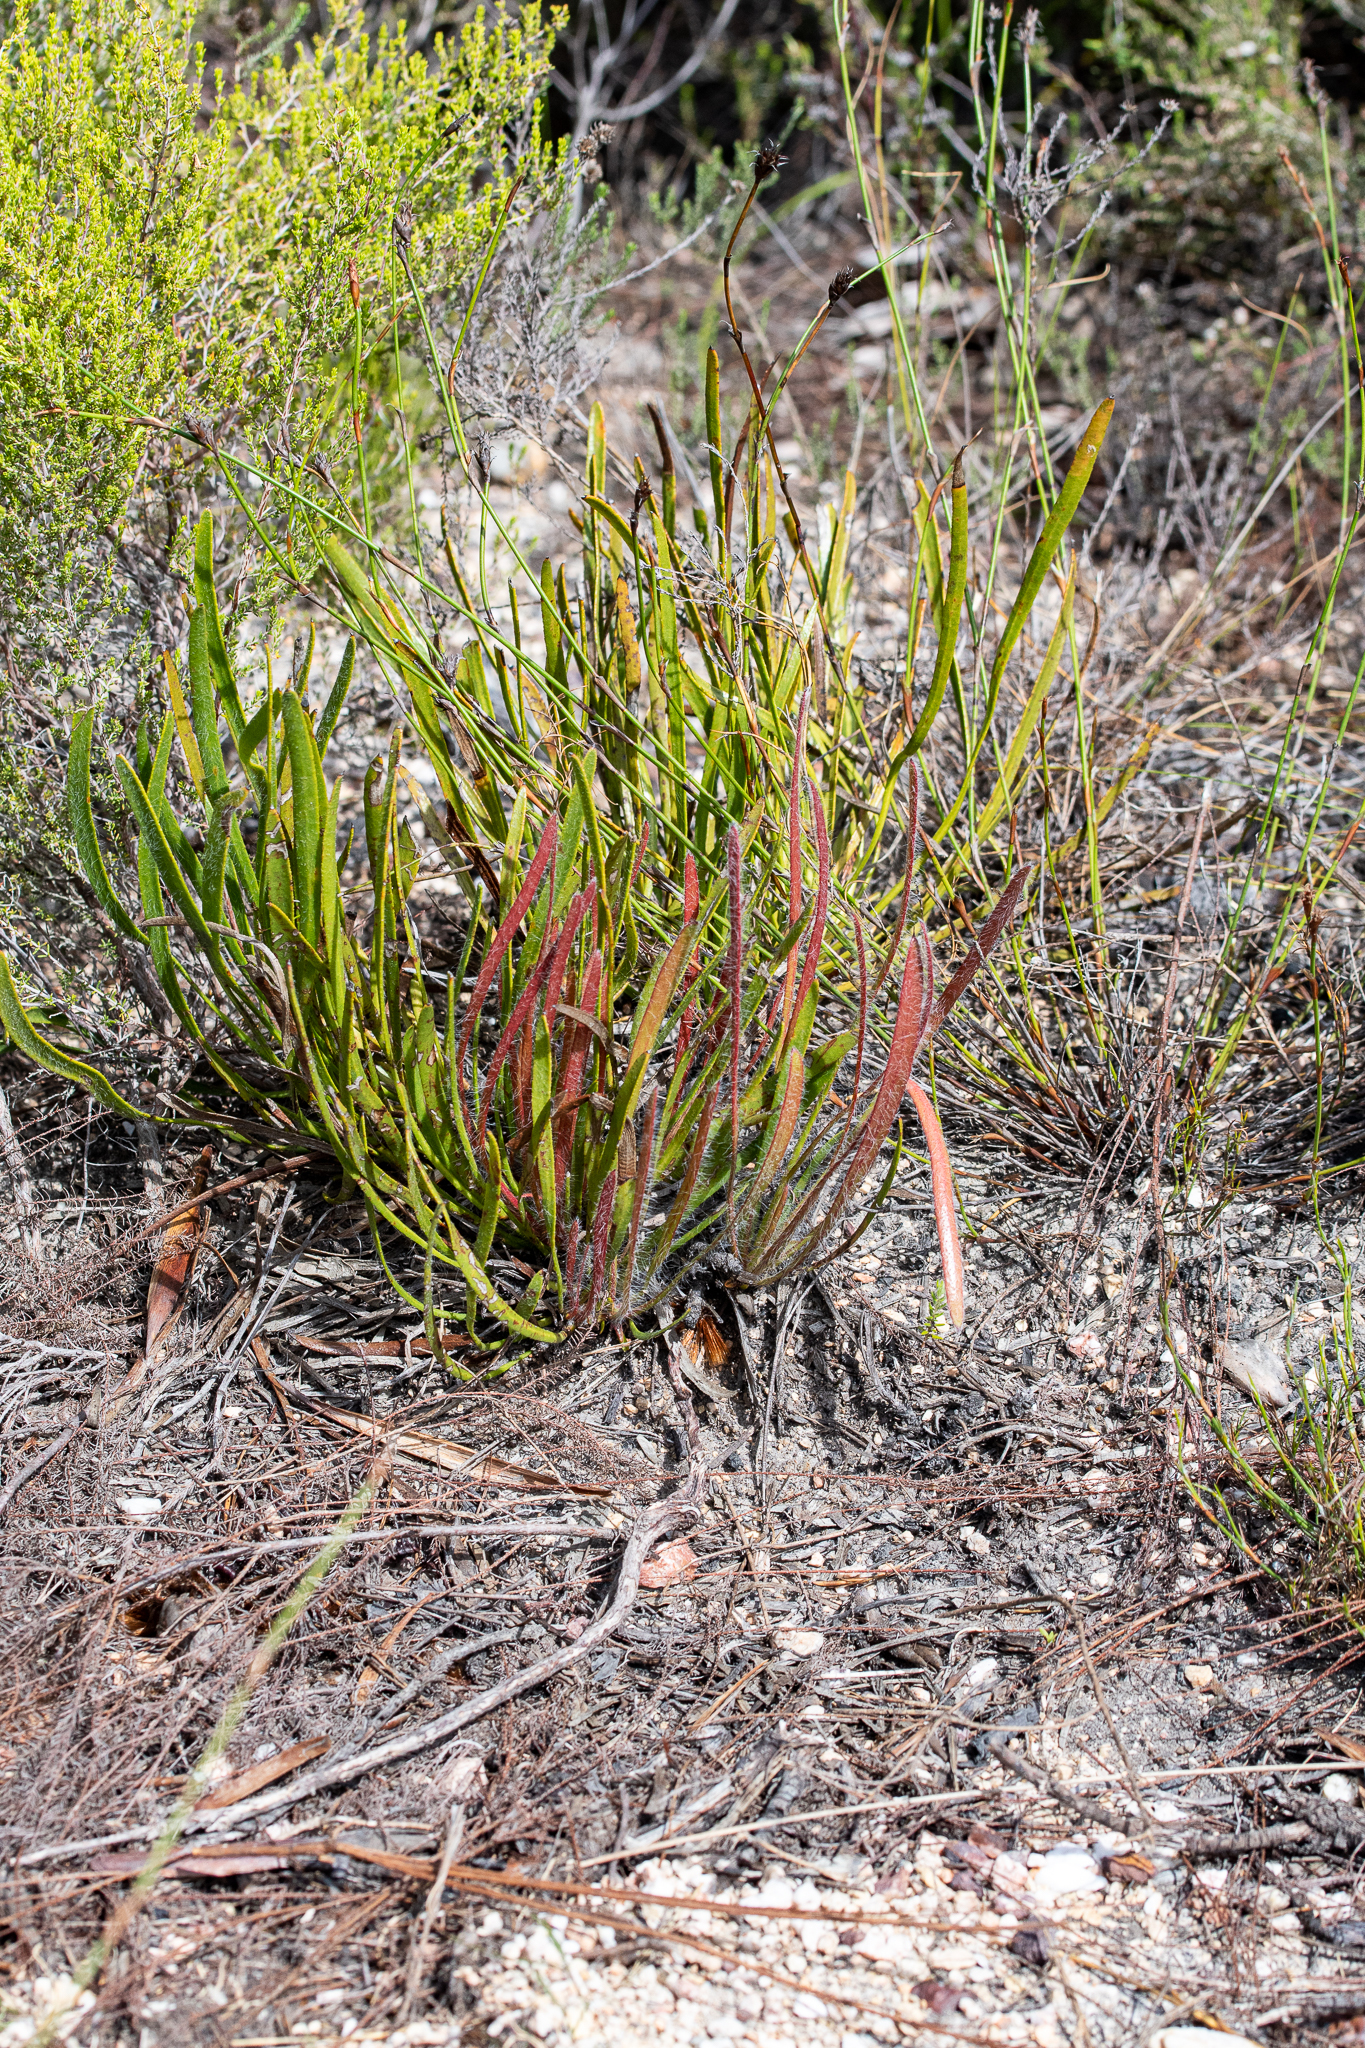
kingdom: Plantae
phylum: Tracheophyta
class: Magnoliopsida
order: Proteales
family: Proteaceae
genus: Protea
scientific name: Protea aspera
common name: Rough-leaf sugarbush
